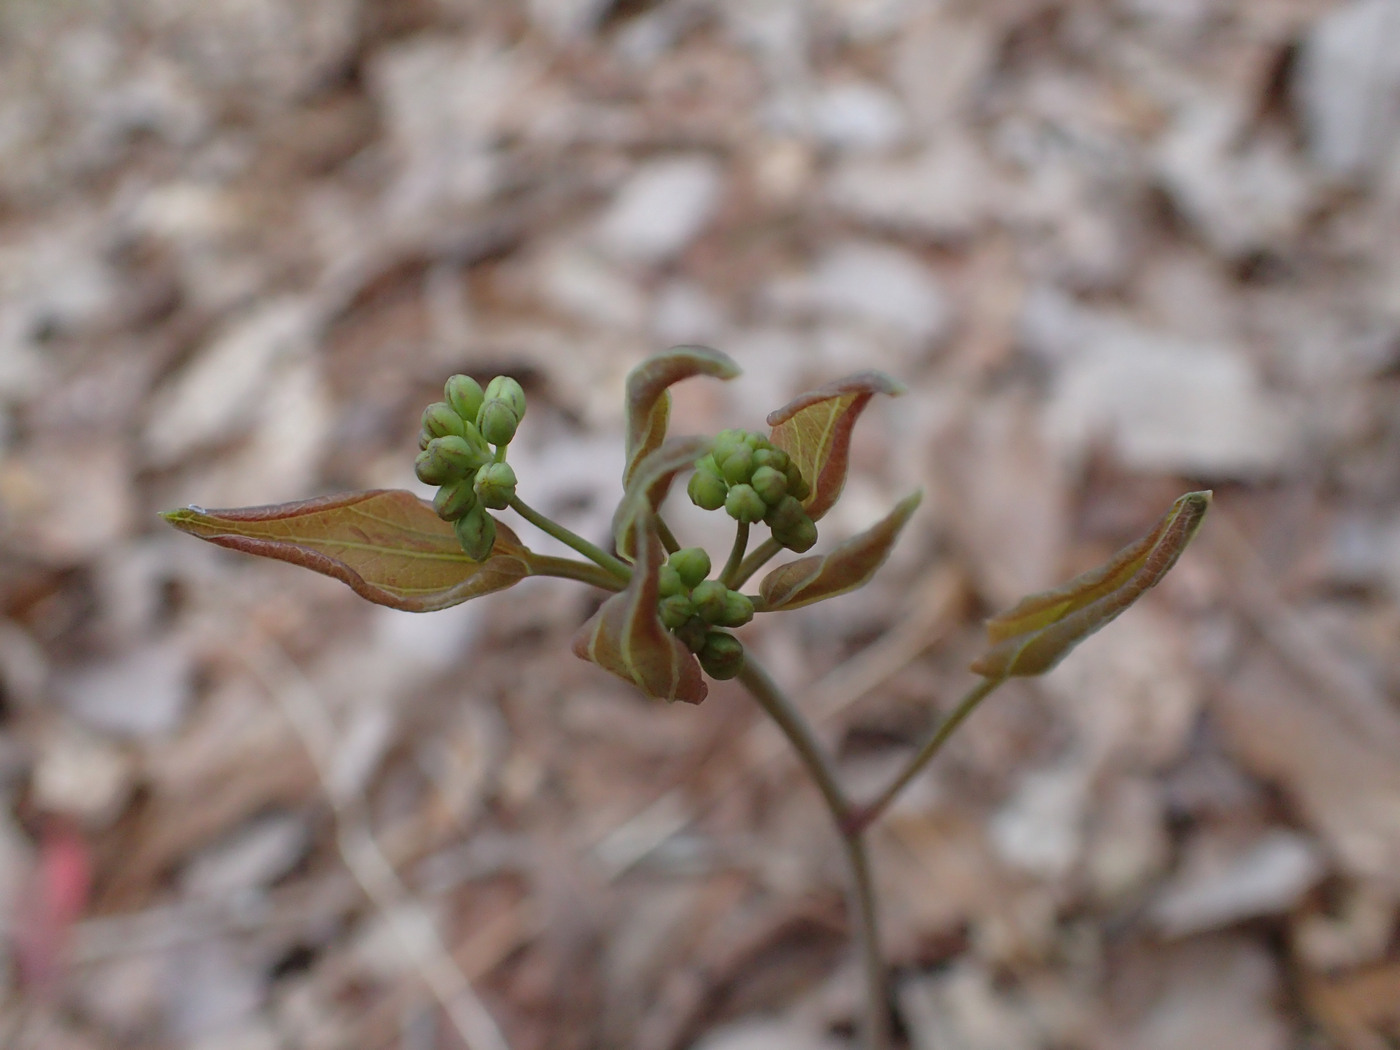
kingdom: Plantae
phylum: Tracheophyta
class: Liliopsida
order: Liliales
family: Smilacaceae
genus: Smilax
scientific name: Smilax biltmoreana
